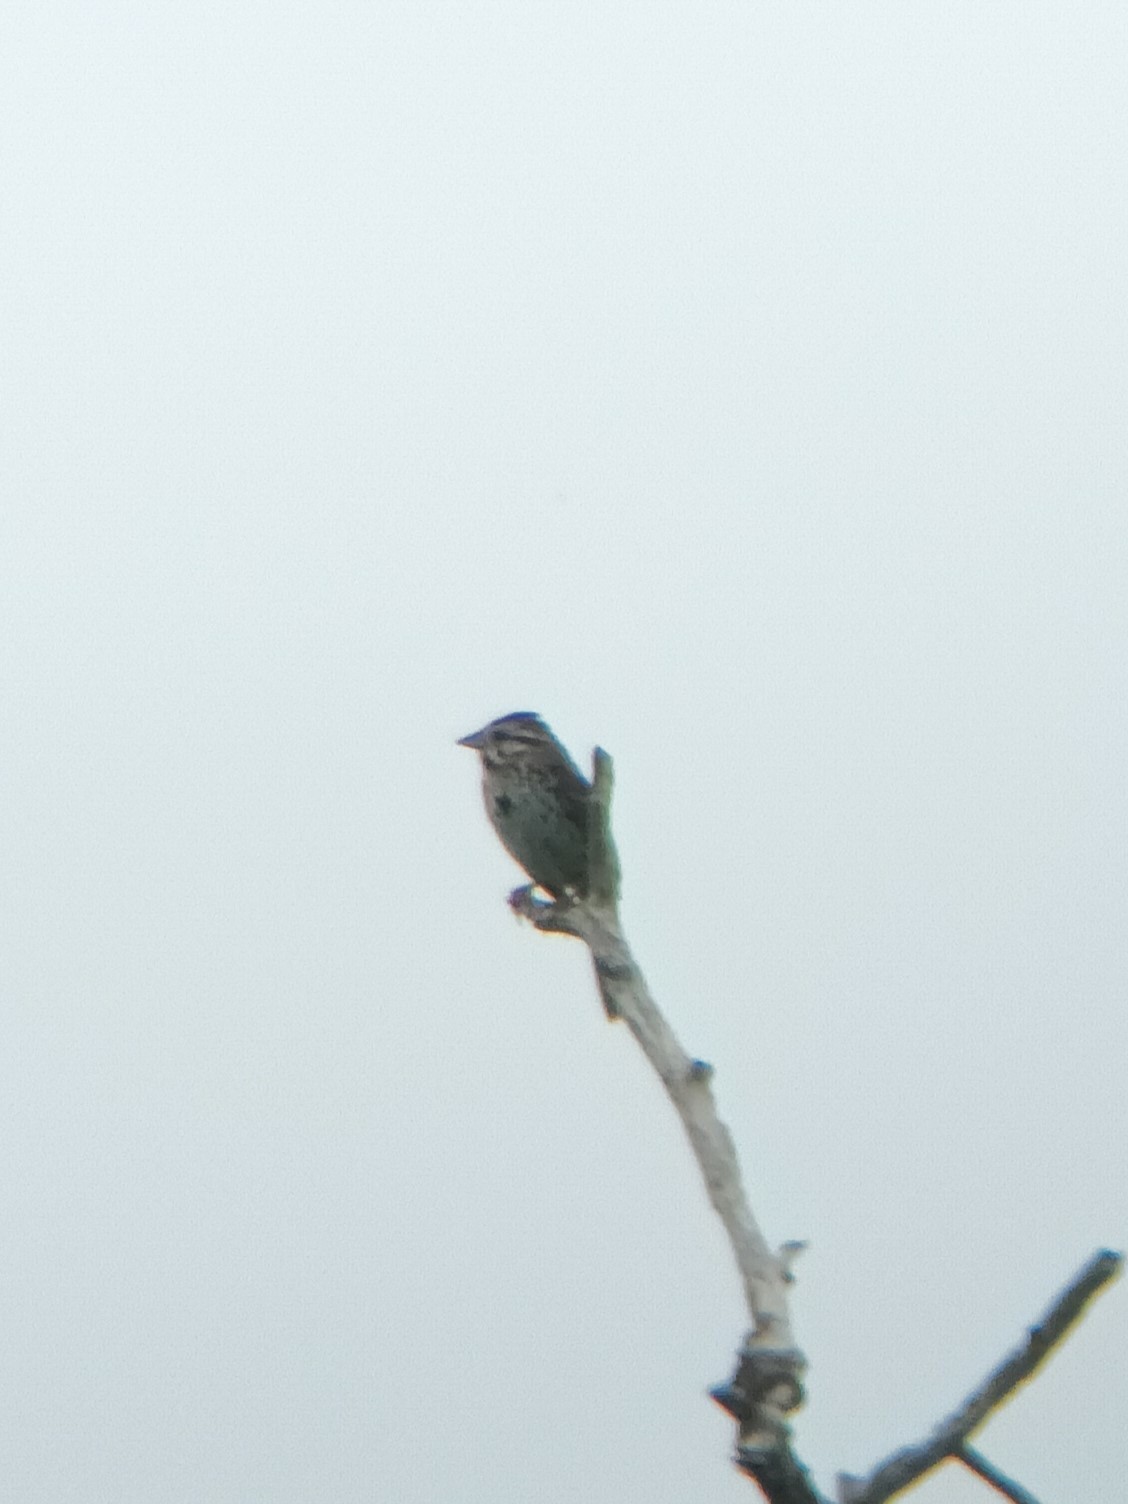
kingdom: Animalia
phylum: Chordata
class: Aves
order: Passeriformes
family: Passerellidae
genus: Melospiza
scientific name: Melospiza melodia
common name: Song sparrow
